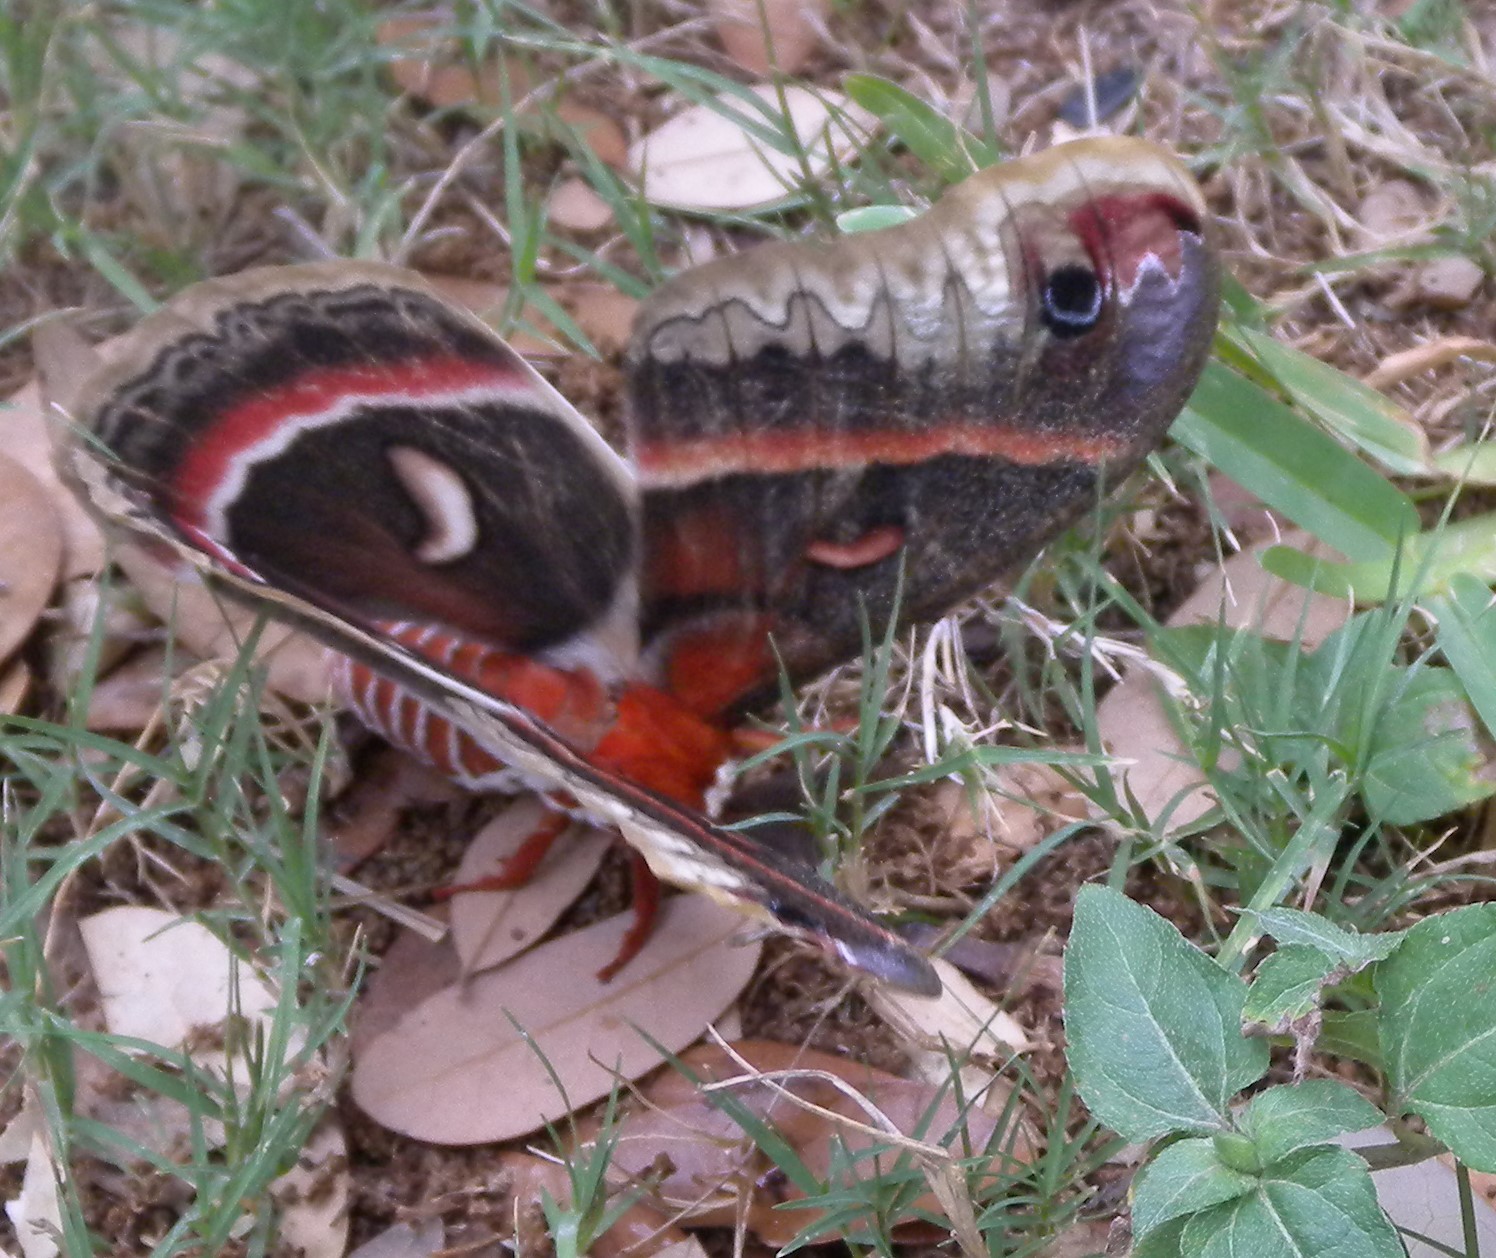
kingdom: Animalia
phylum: Arthropoda
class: Insecta
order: Lepidoptera
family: Saturniidae
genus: Hyalophora
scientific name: Hyalophora cecropia
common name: Cecropia silkmoth
